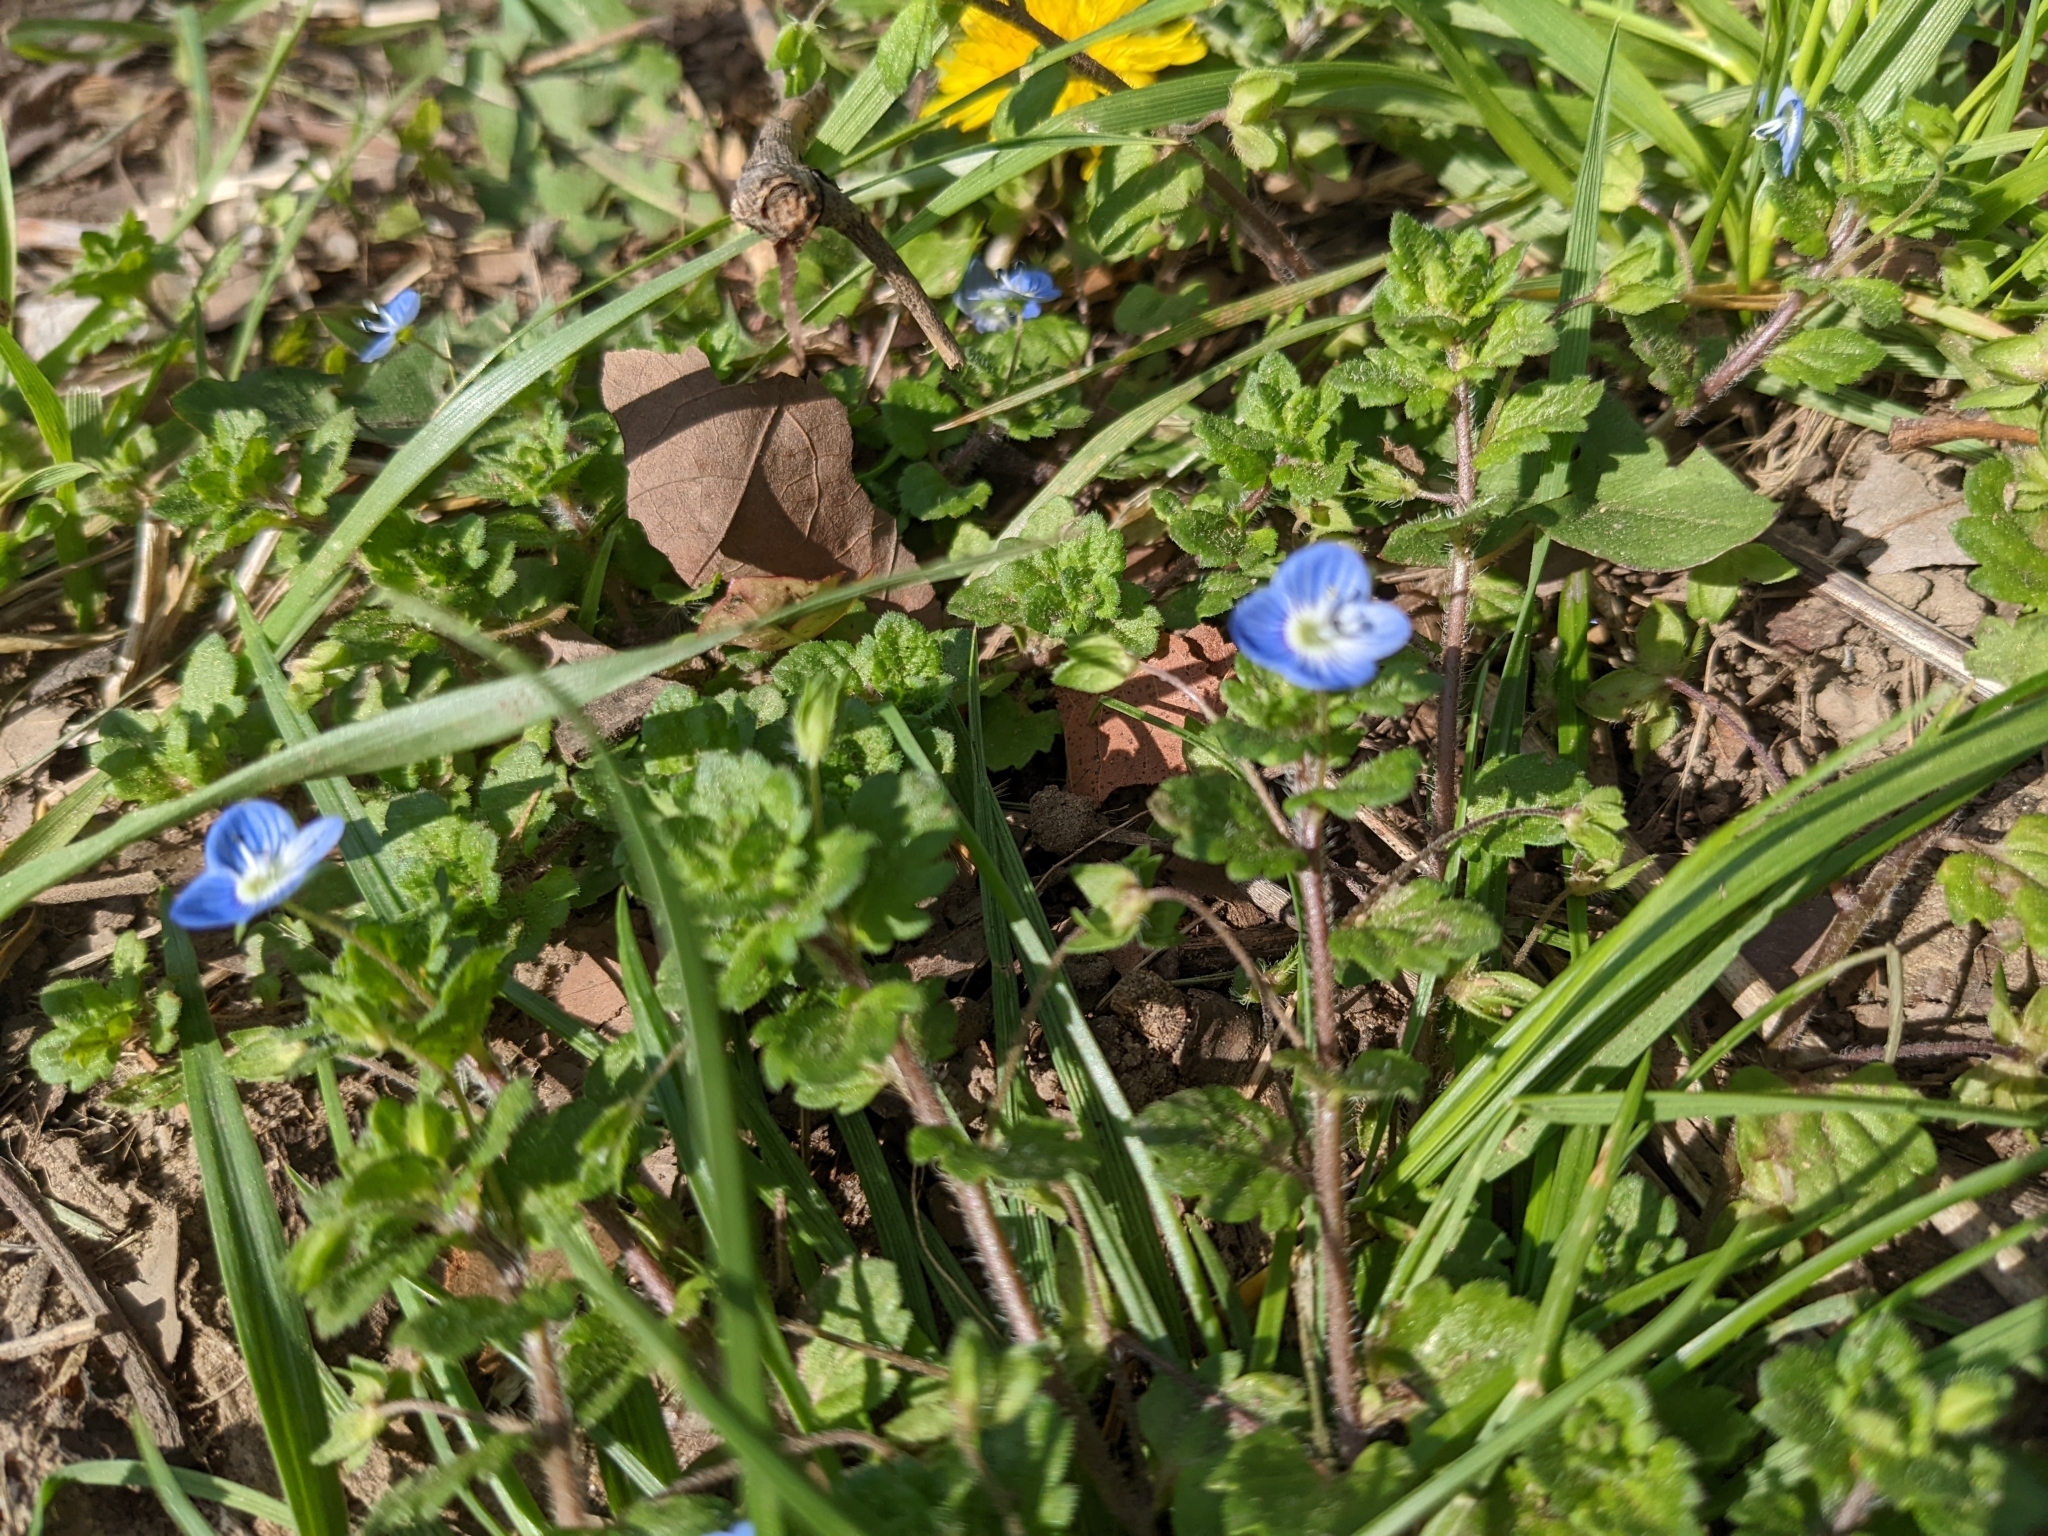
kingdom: Plantae
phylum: Tracheophyta
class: Magnoliopsida
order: Lamiales
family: Plantaginaceae
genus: Veronica
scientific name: Veronica persica
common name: Common field-speedwell
